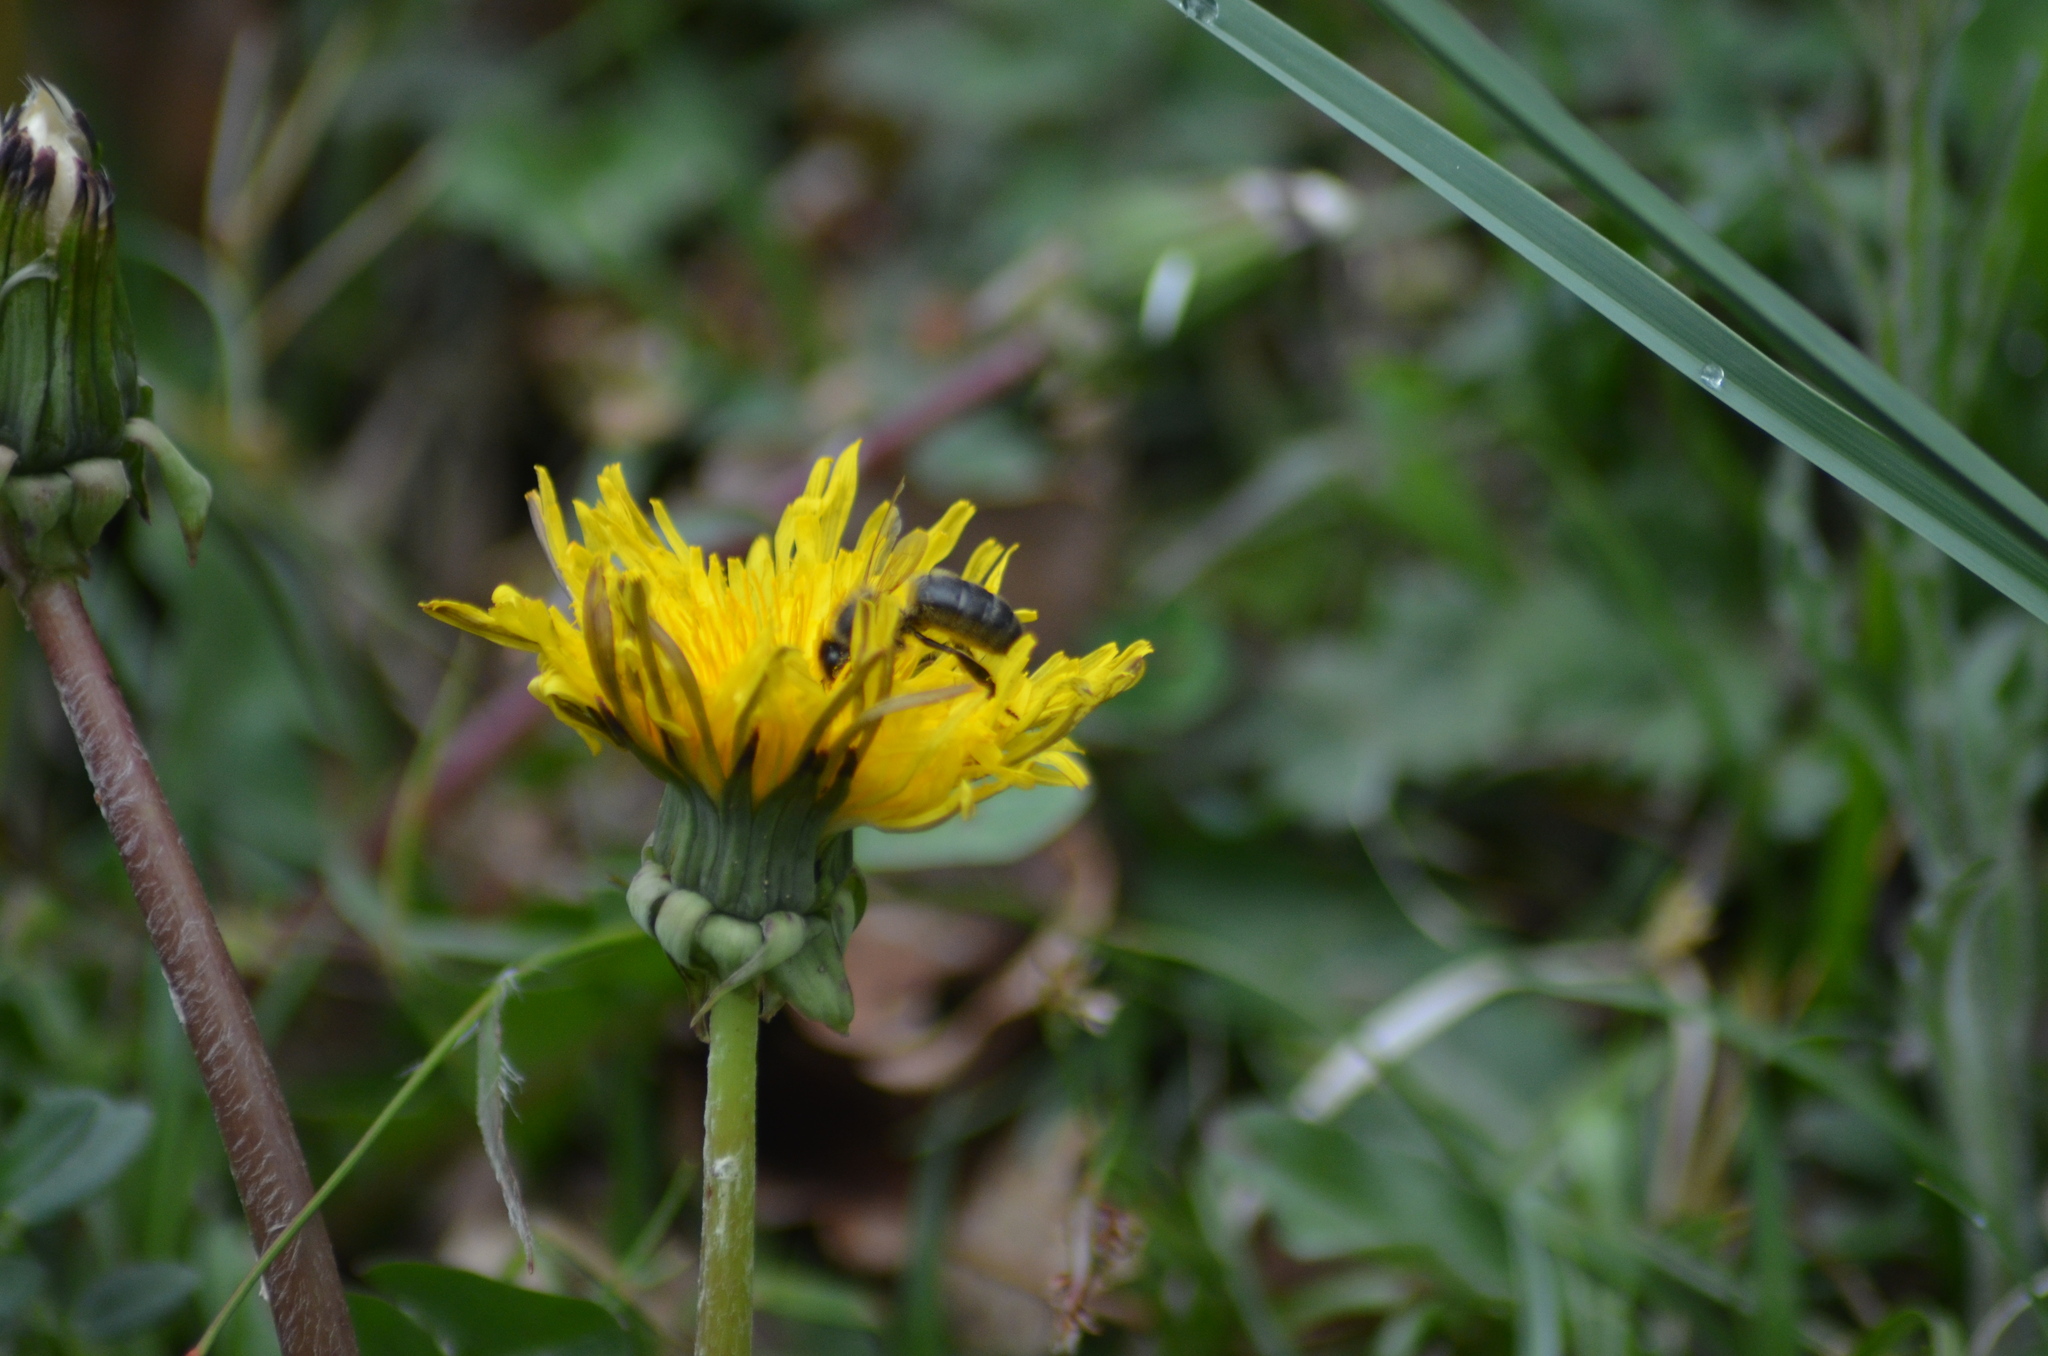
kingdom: Animalia
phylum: Arthropoda
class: Insecta
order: Hymenoptera
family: Apidae
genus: Apis
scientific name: Apis mellifera
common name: Honey bee
